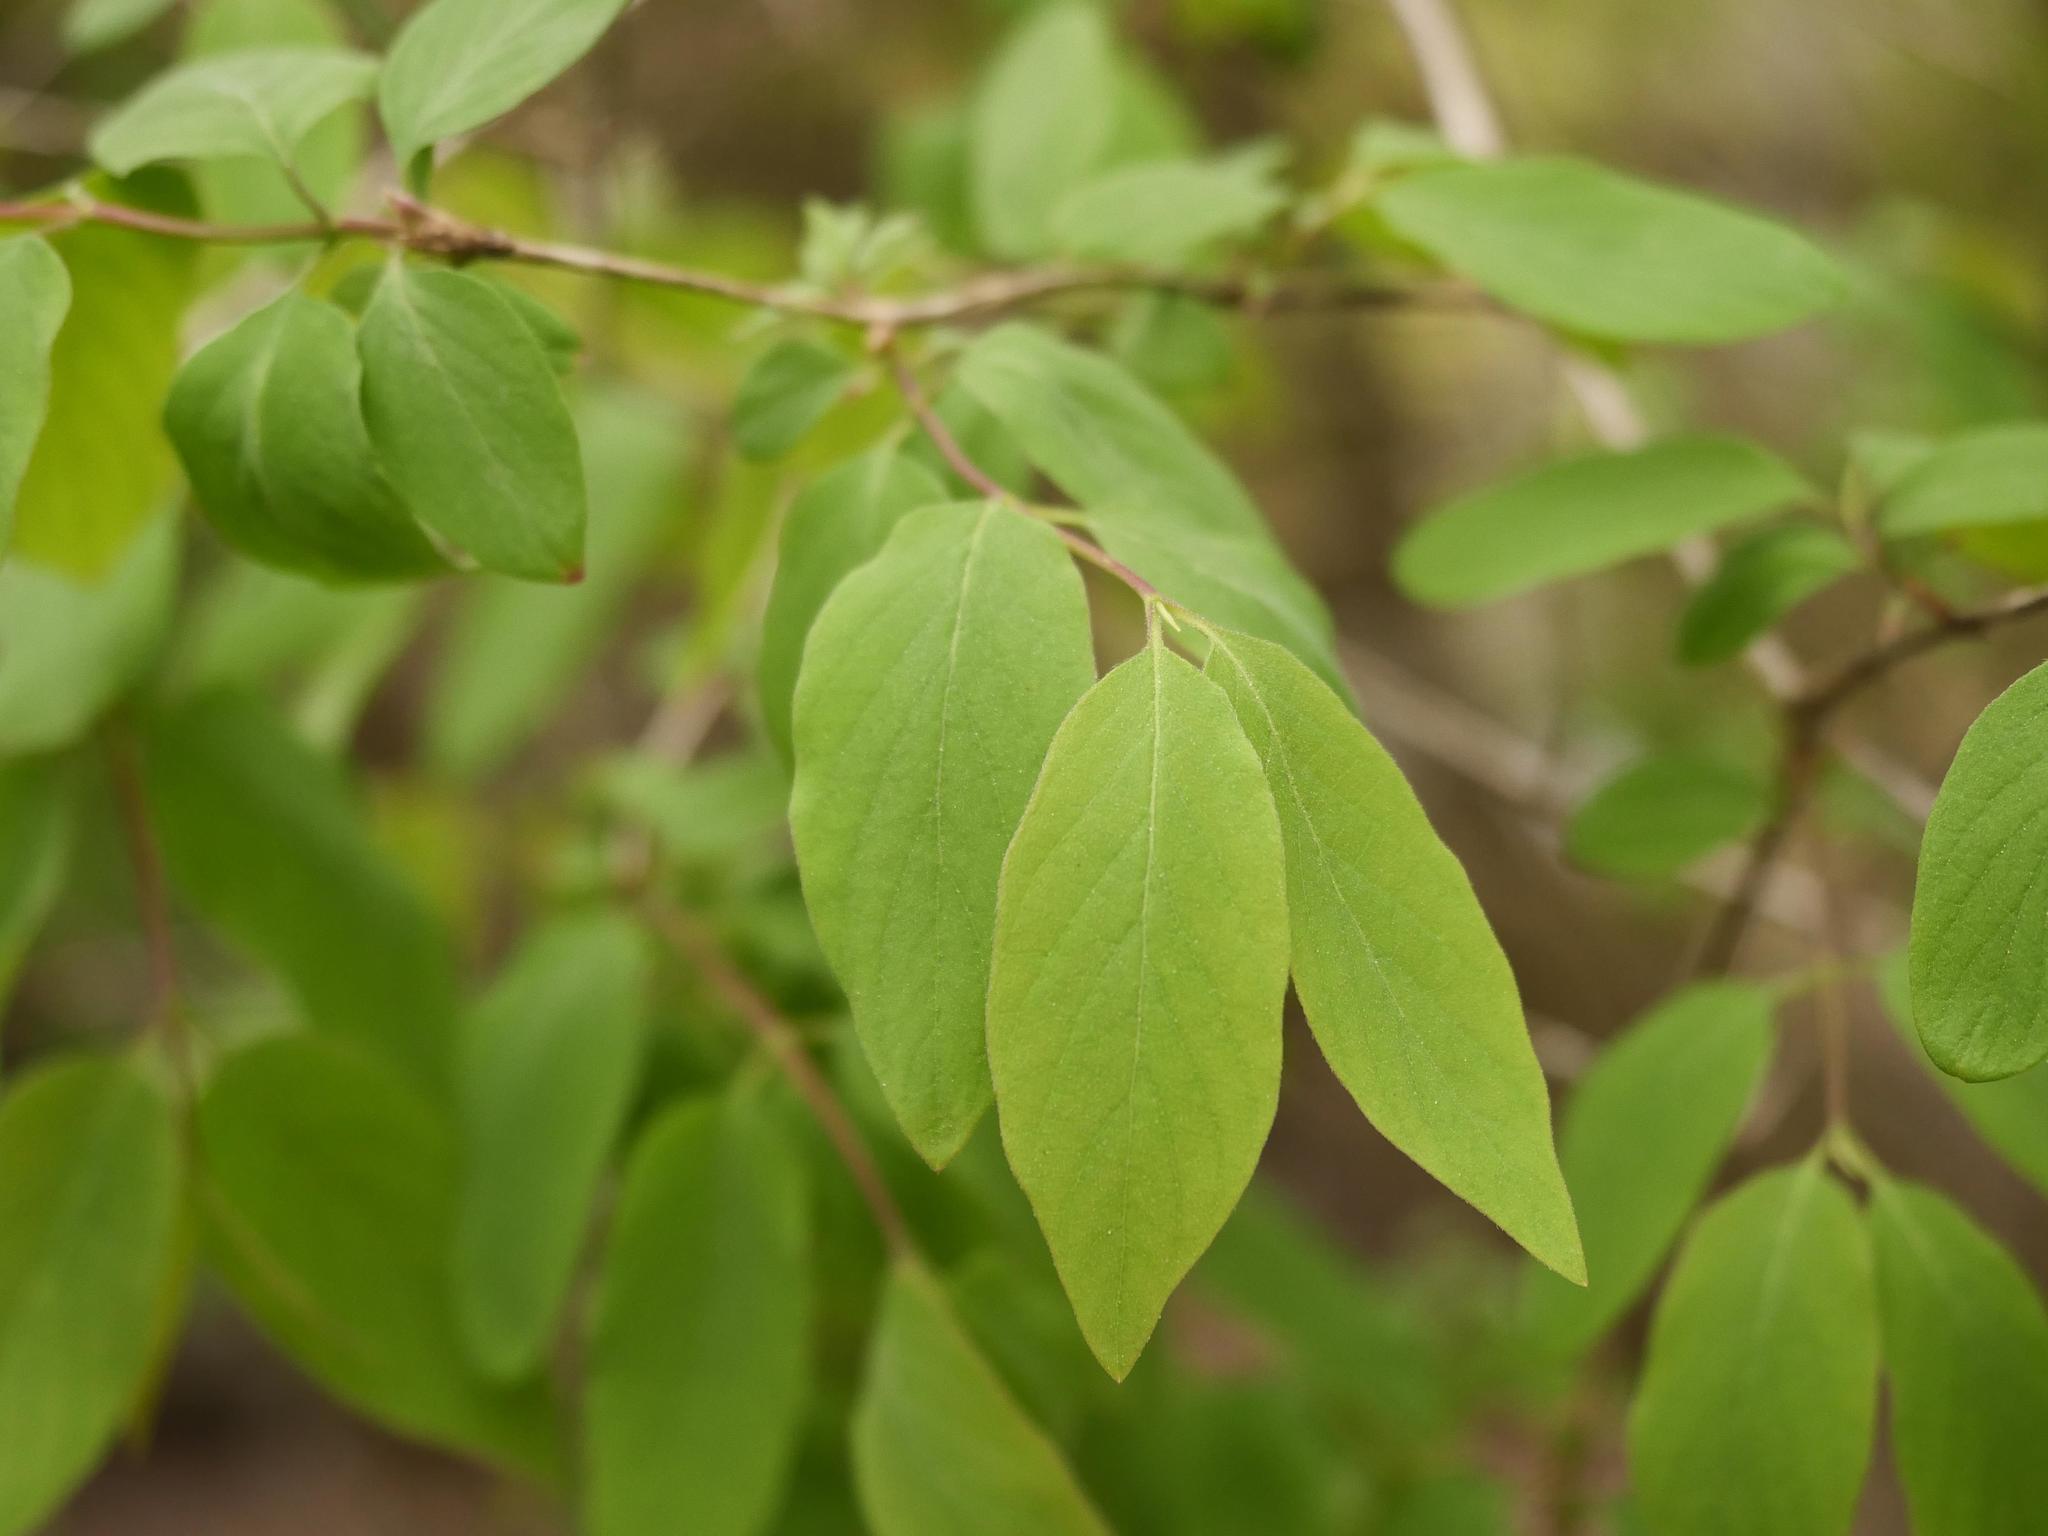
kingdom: Plantae
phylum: Tracheophyta
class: Magnoliopsida
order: Dipsacales
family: Caprifoliaceae
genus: Lonicera
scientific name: Lonicera xylosteum
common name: Fly honeysuckle
